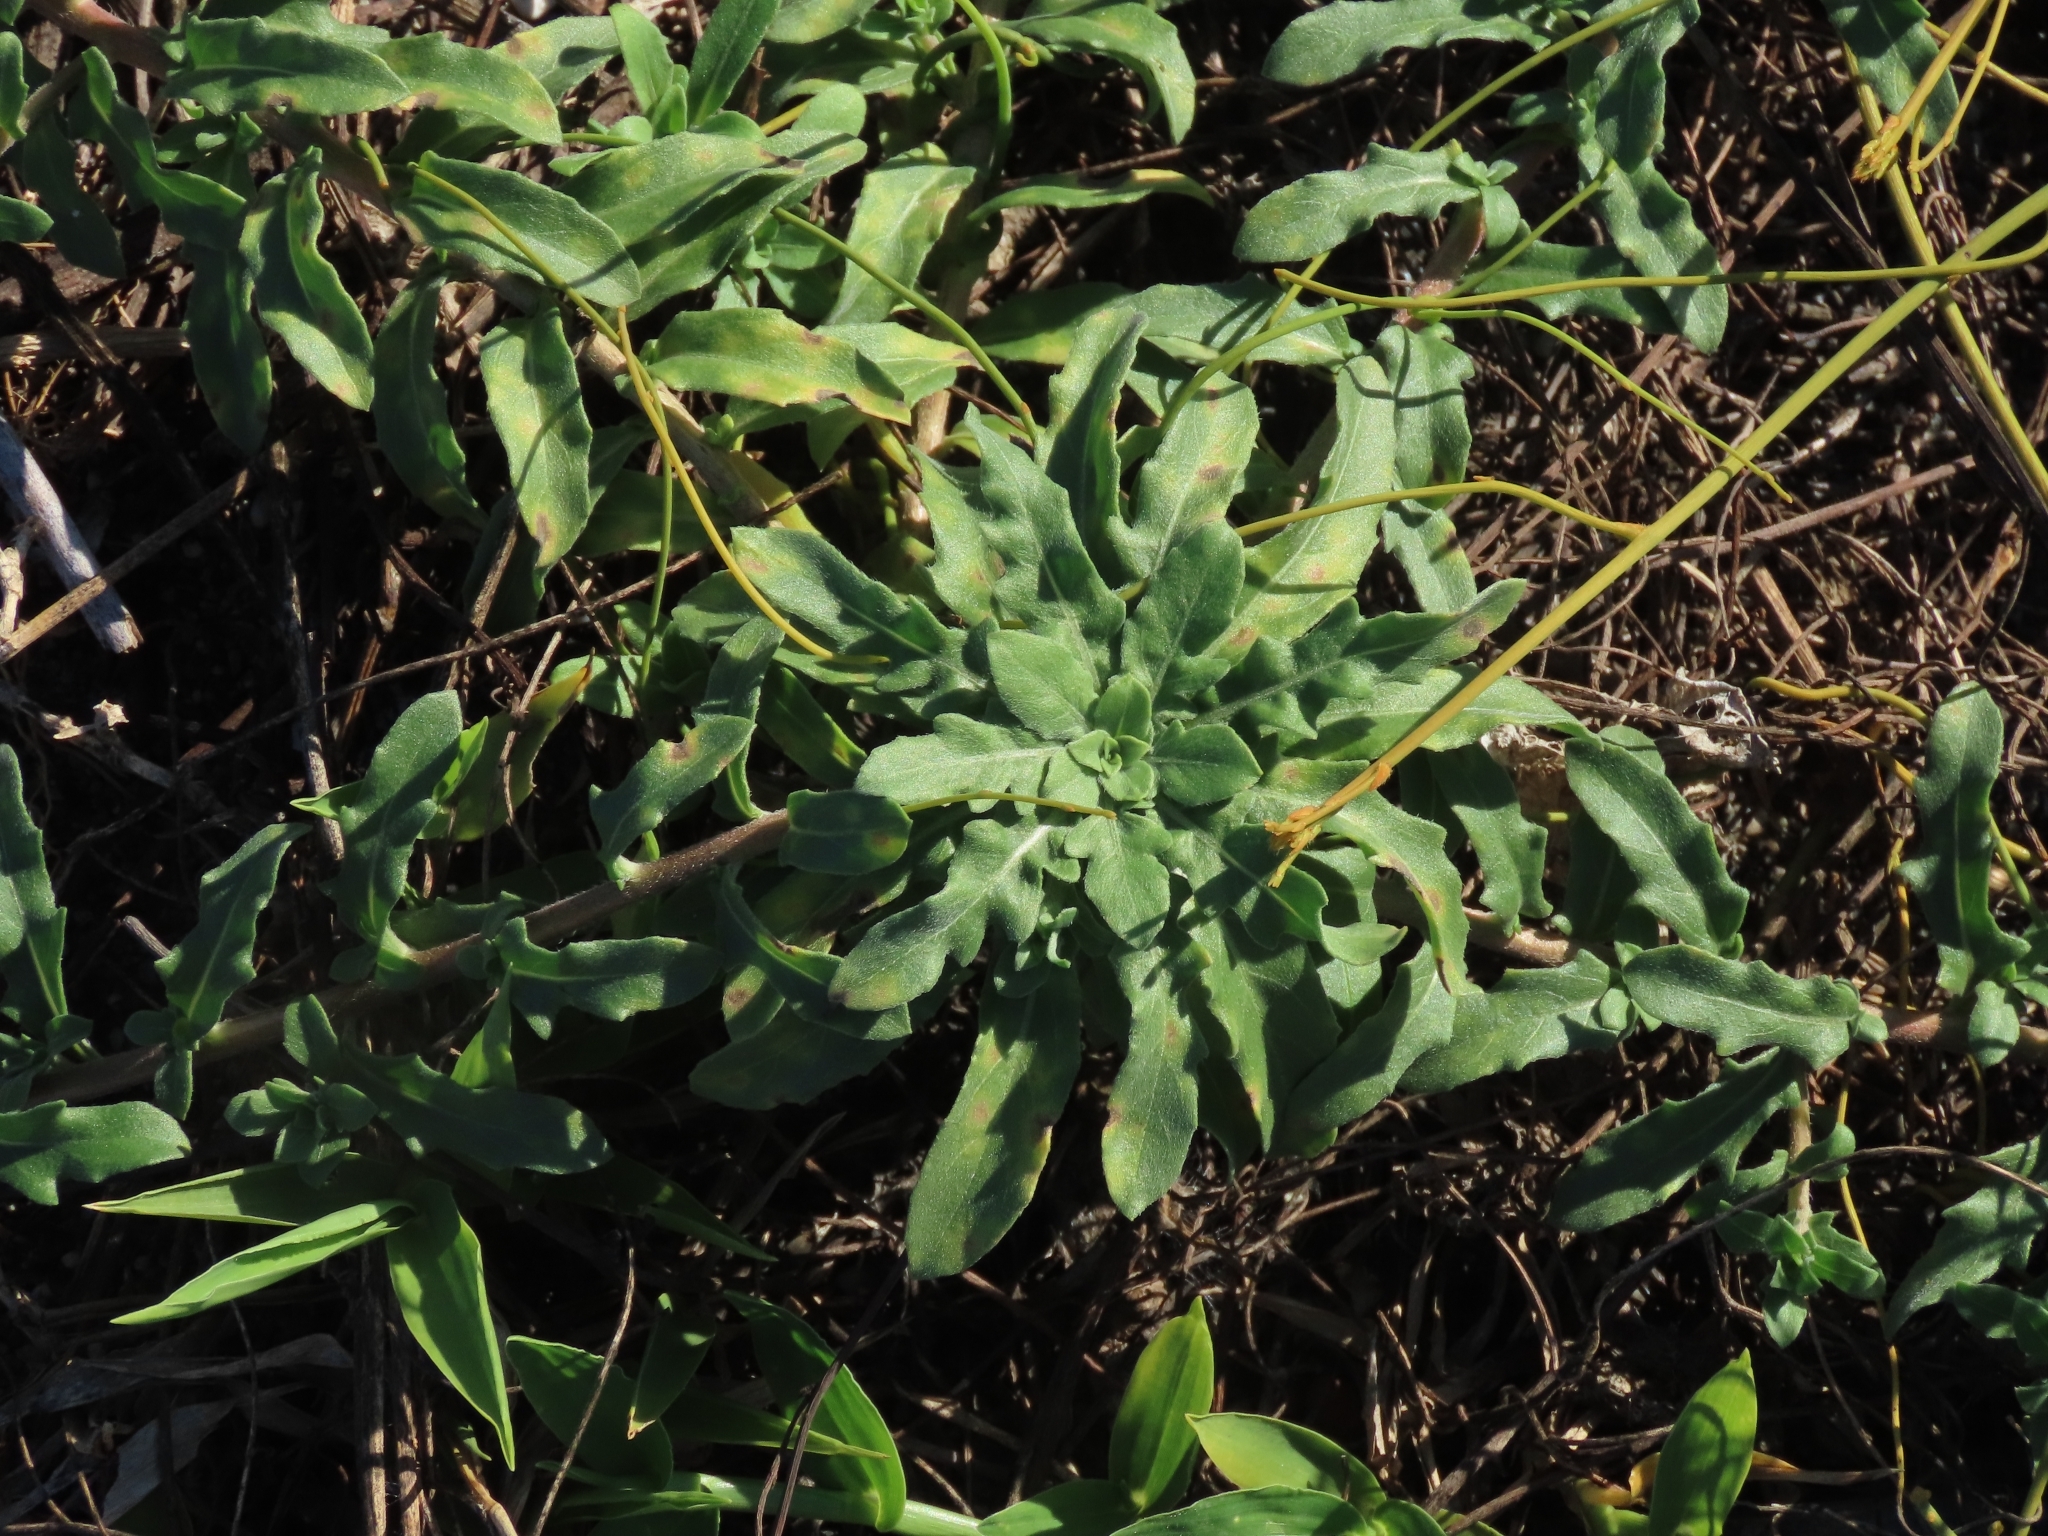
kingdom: Plantae
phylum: Tracheophyta
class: Magnoliopsida
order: Myrtales
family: Onagraceae
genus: Oenothera
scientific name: Oenothera laciniata
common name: Cut-leaved evening-primrose
